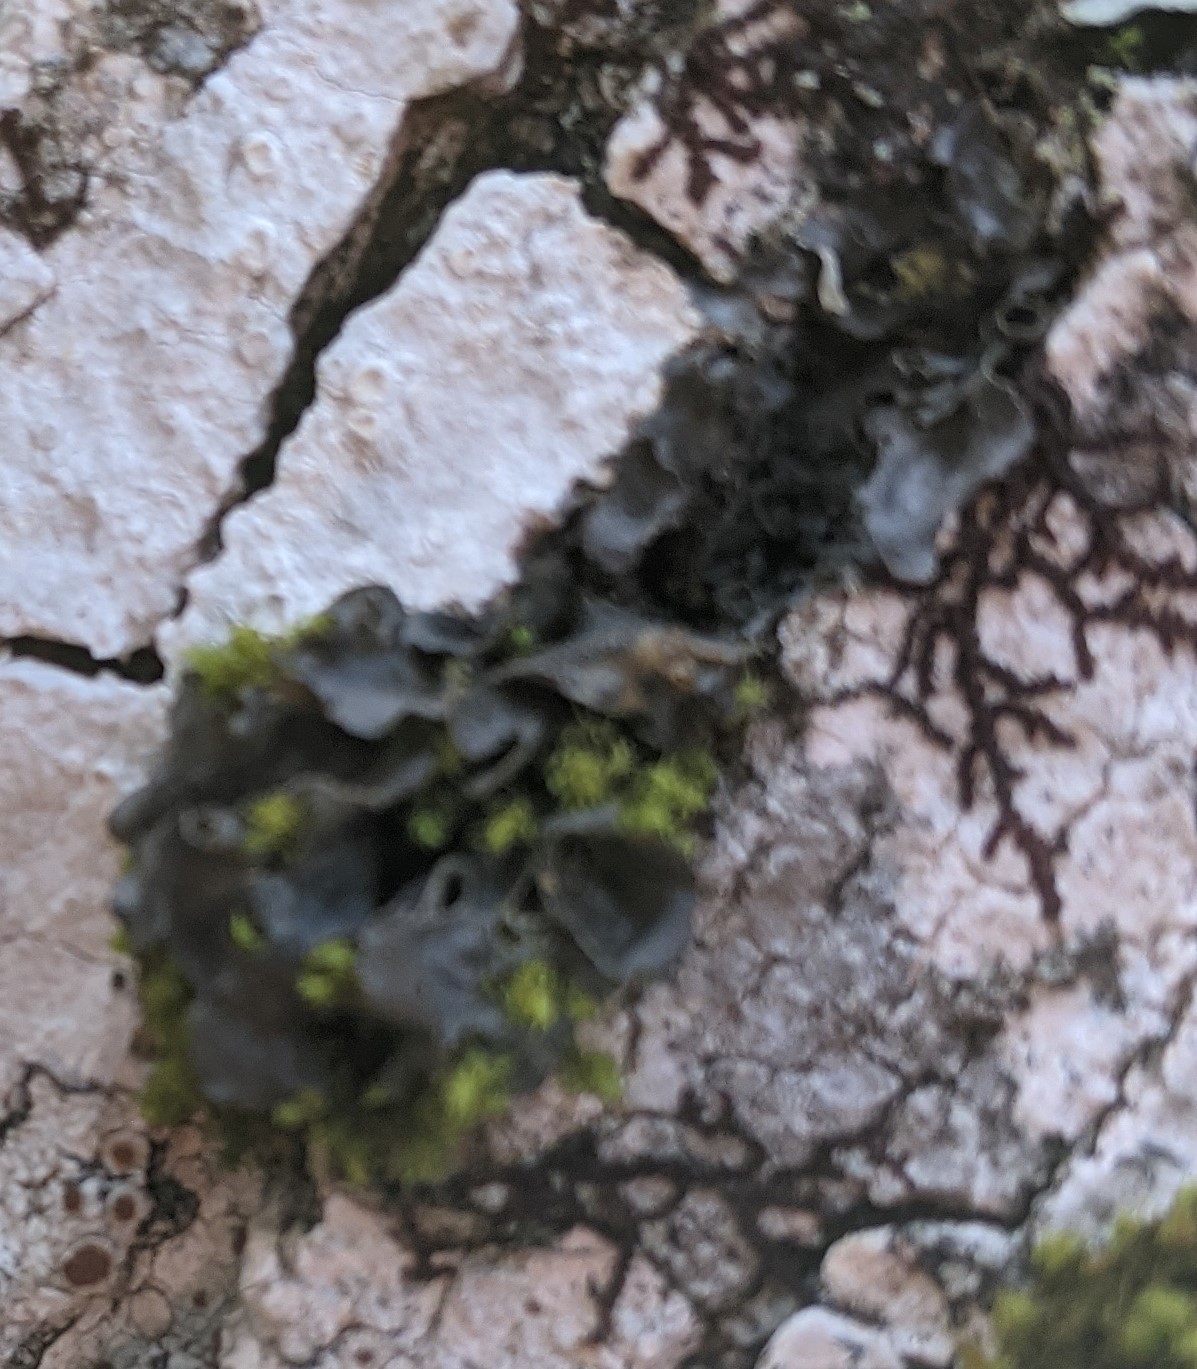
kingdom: Fungi
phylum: Ascomycota
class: Lecanoromycetes
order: Peltigerales
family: Collemataceae
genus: Leptogium
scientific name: Leptogium cyanescens
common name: Blue jellyskin
